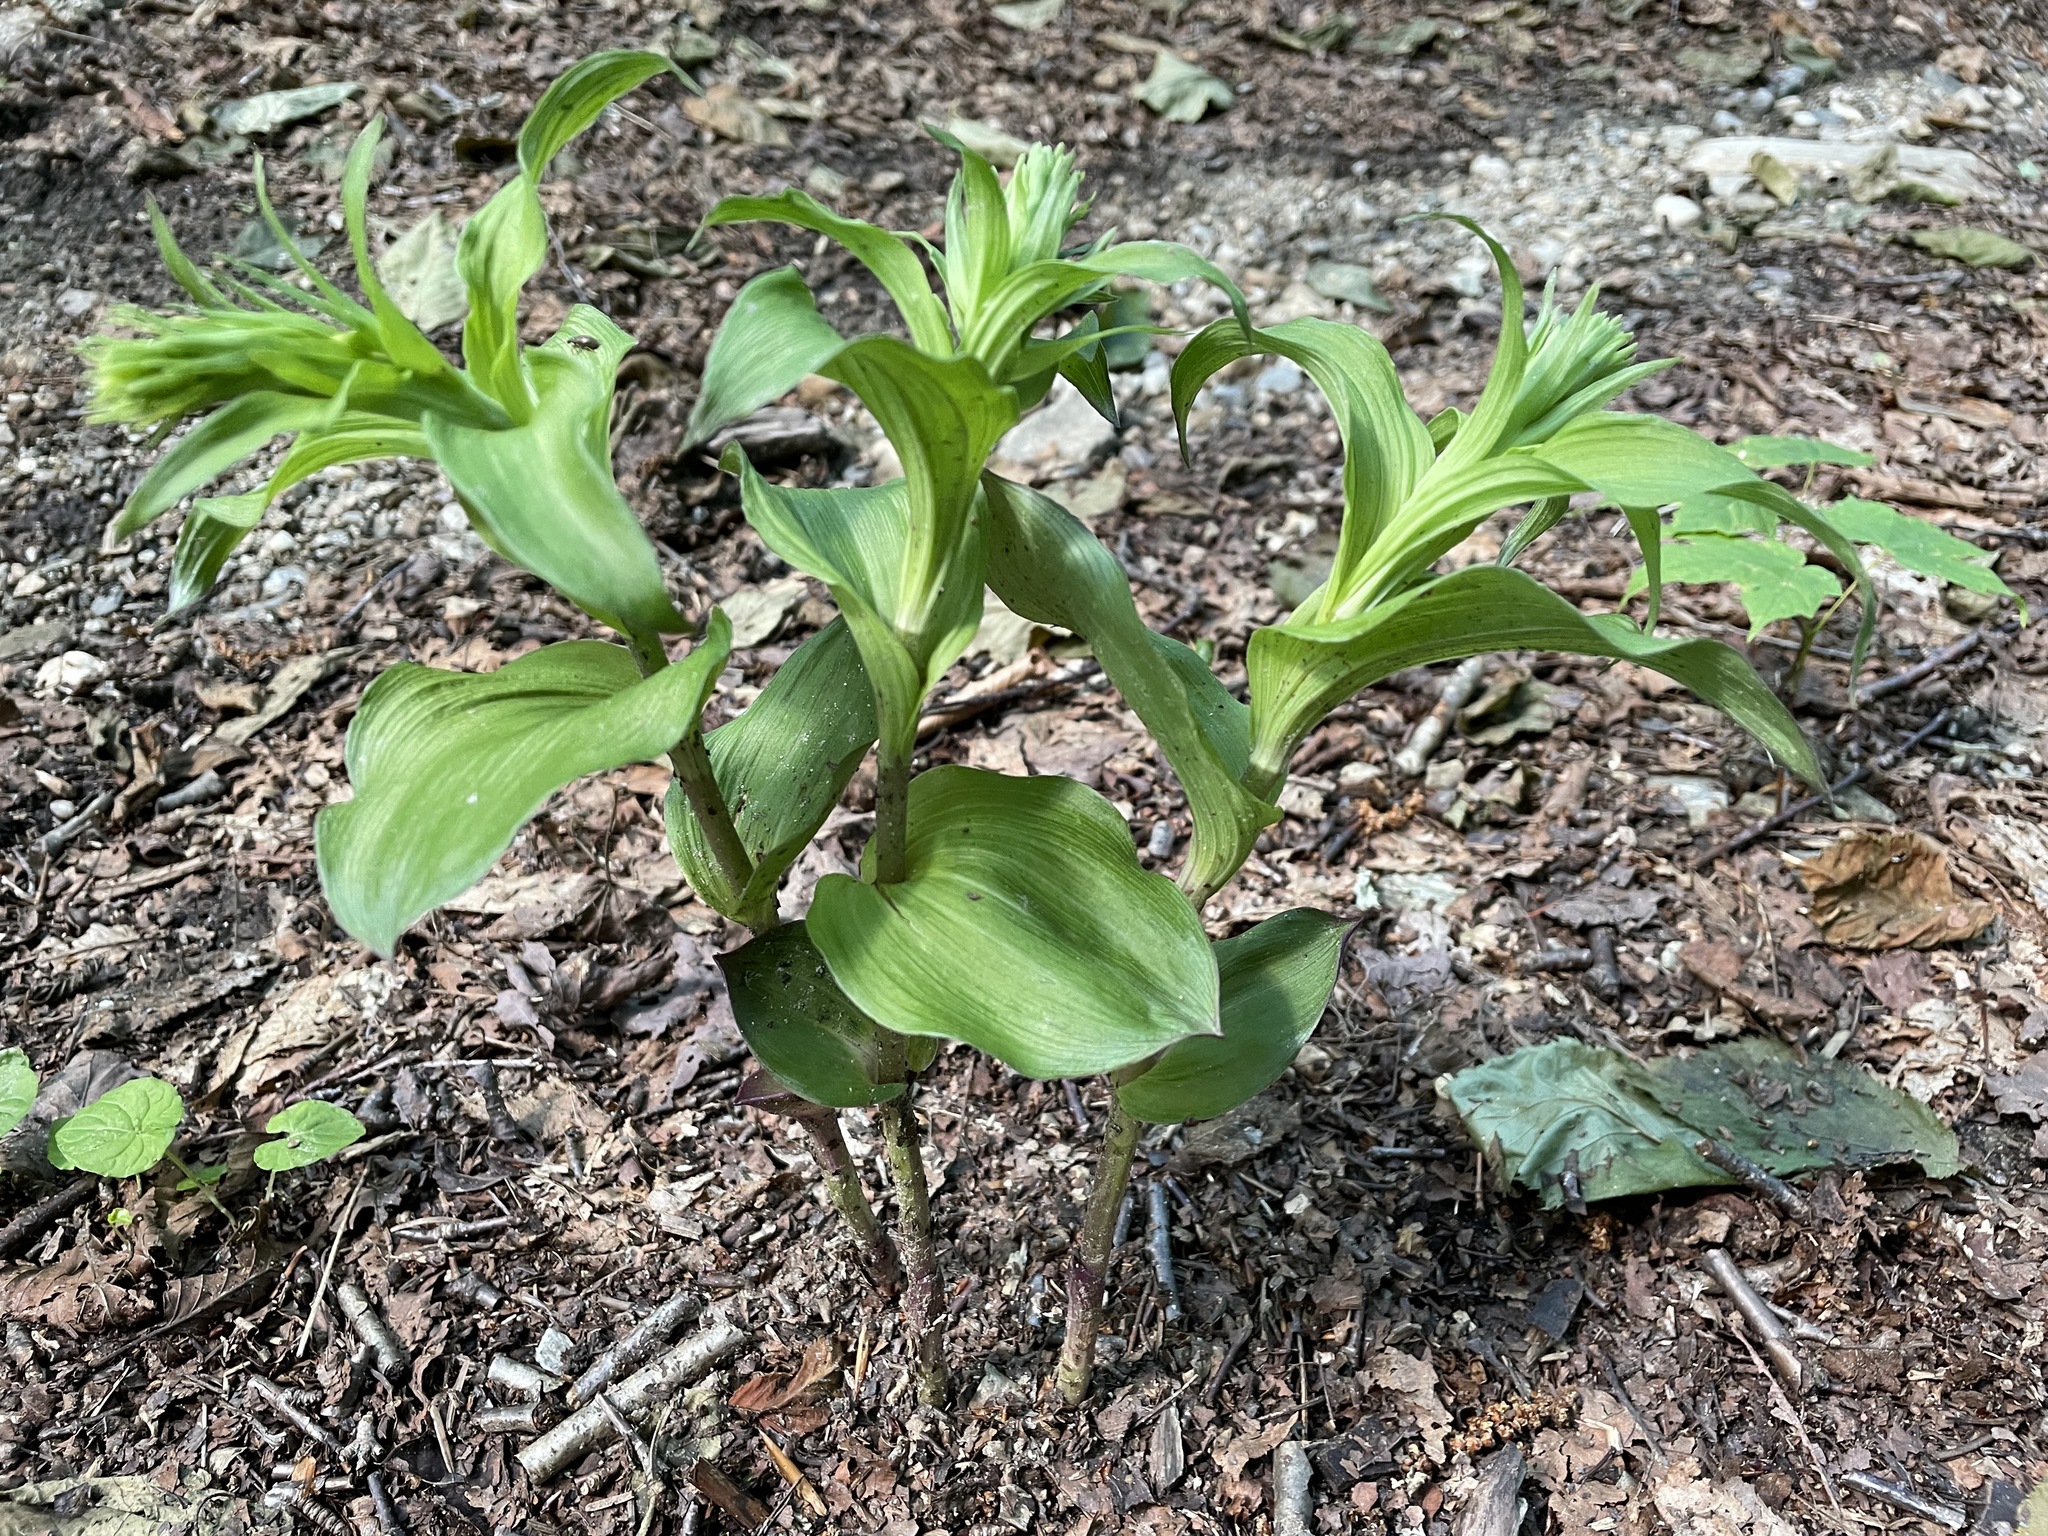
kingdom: Plantae
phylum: Tracheophyta
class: Liliopsida
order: Asparagales
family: Orchidaceae
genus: Epipactis
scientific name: Epipactis helleborine
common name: Broad-leaved helleborine
